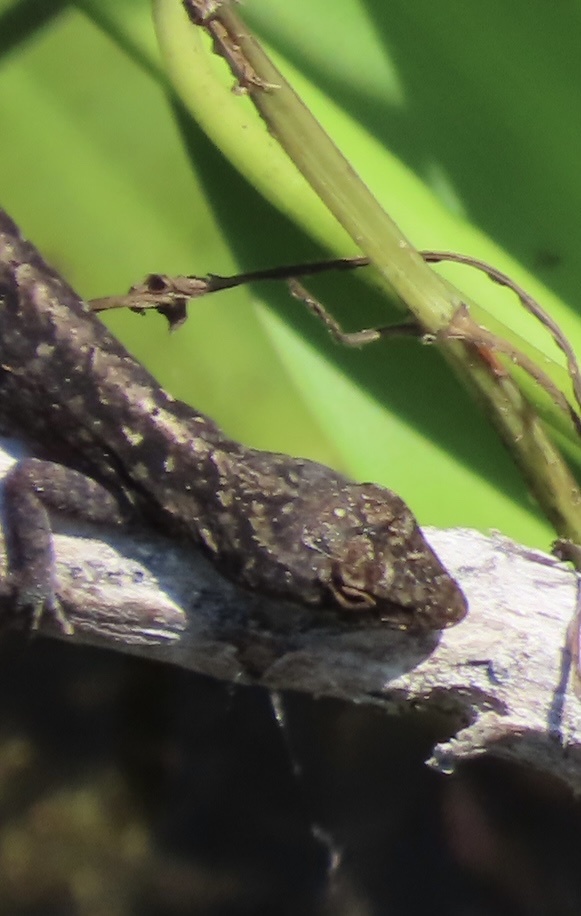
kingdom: Animalia
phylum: Chordata
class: Squamata
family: Dactyloidae
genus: Anolis
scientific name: Anolis sagrei
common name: Brown anole
